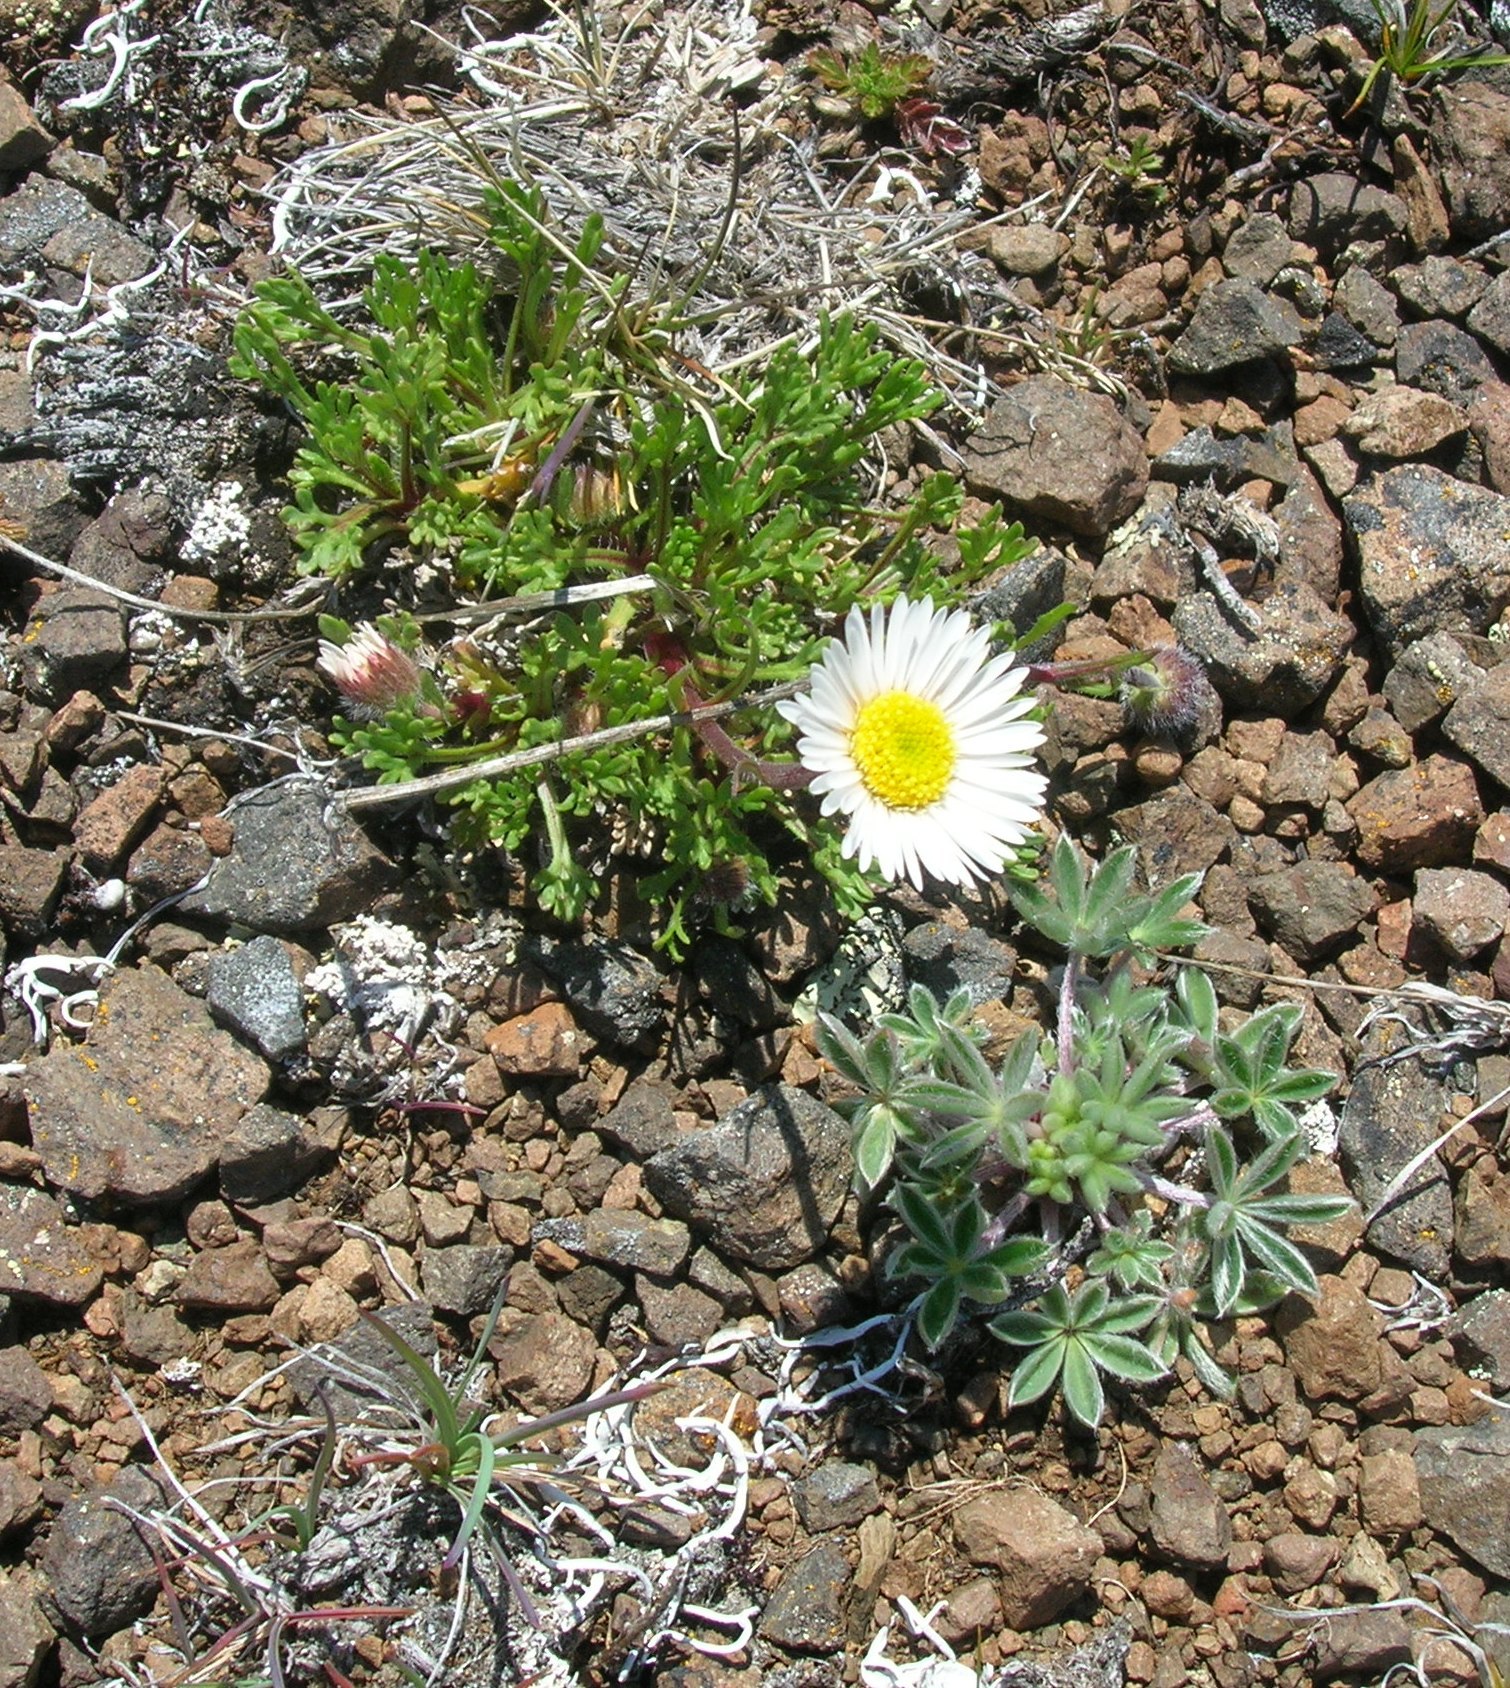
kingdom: Plantae
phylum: Tracheophyta
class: Magnoliopsida
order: Asterales
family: Asteraceae
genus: Erigeron
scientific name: Erigeron compositus
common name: Dwarf mountain fleabane
